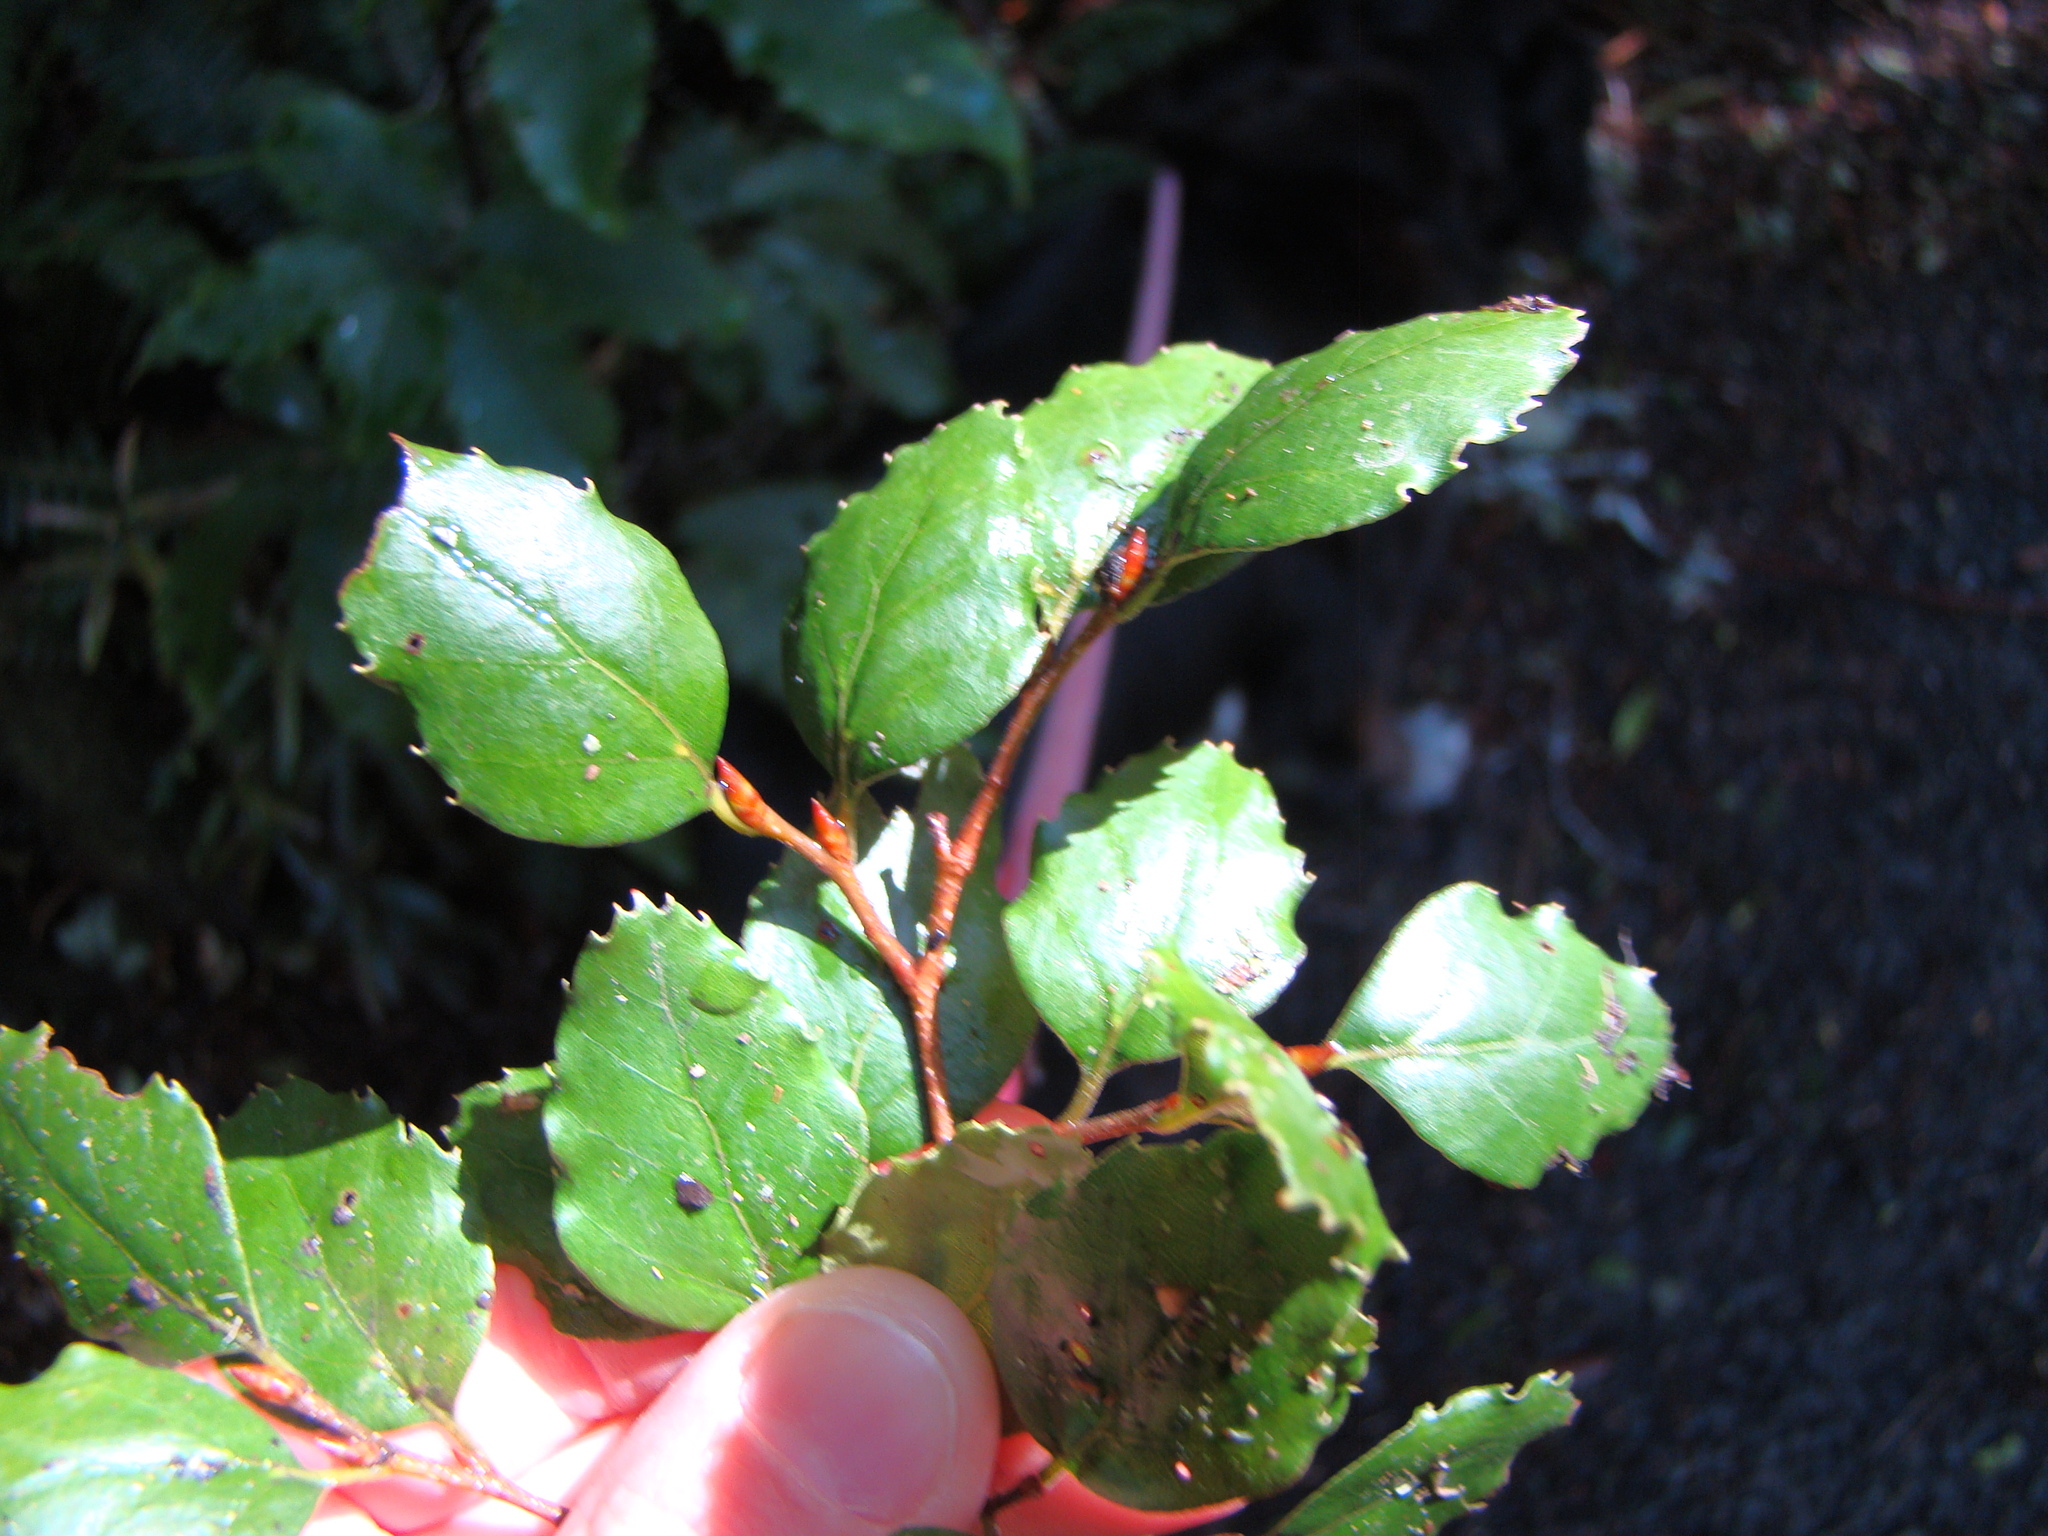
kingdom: Plantae
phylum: Tracheophyta
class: Magnoliopsida
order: Fagales
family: Nothofagaceae
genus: Nothofagus
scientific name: Nothofagus fusca
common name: Red beech
